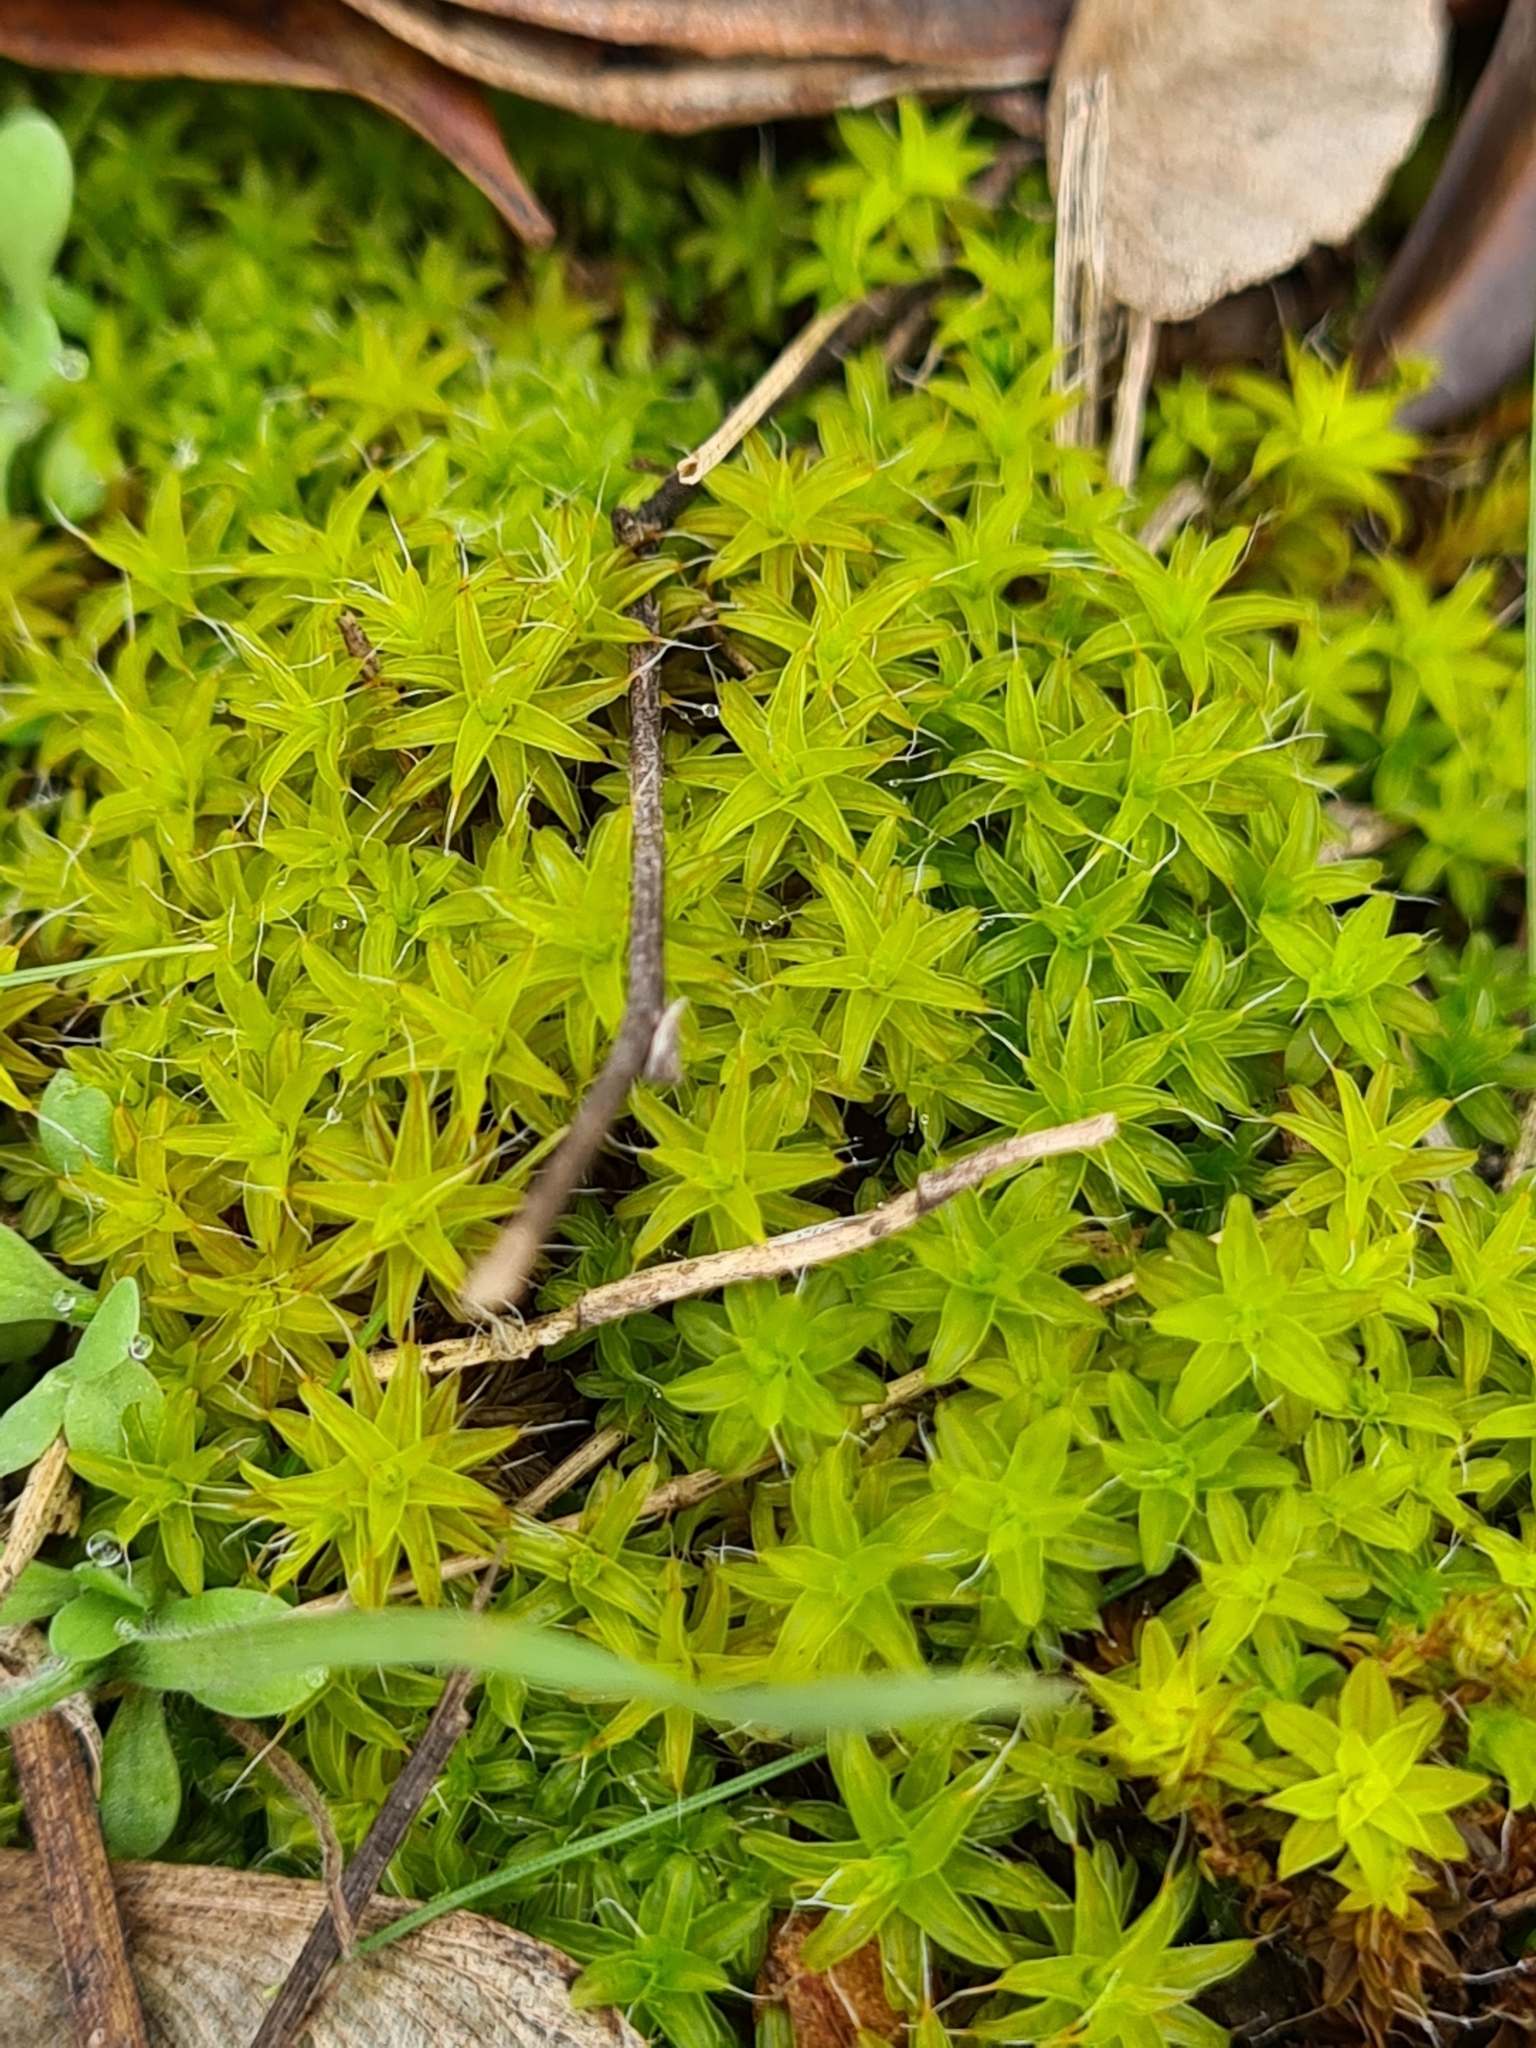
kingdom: Plantae
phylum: Bryophyta
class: Bryopsida
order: Pottiales
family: Pottiaceae
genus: Syntrichia
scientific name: Syntrichia ruralis
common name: Sidewalk screw moss
